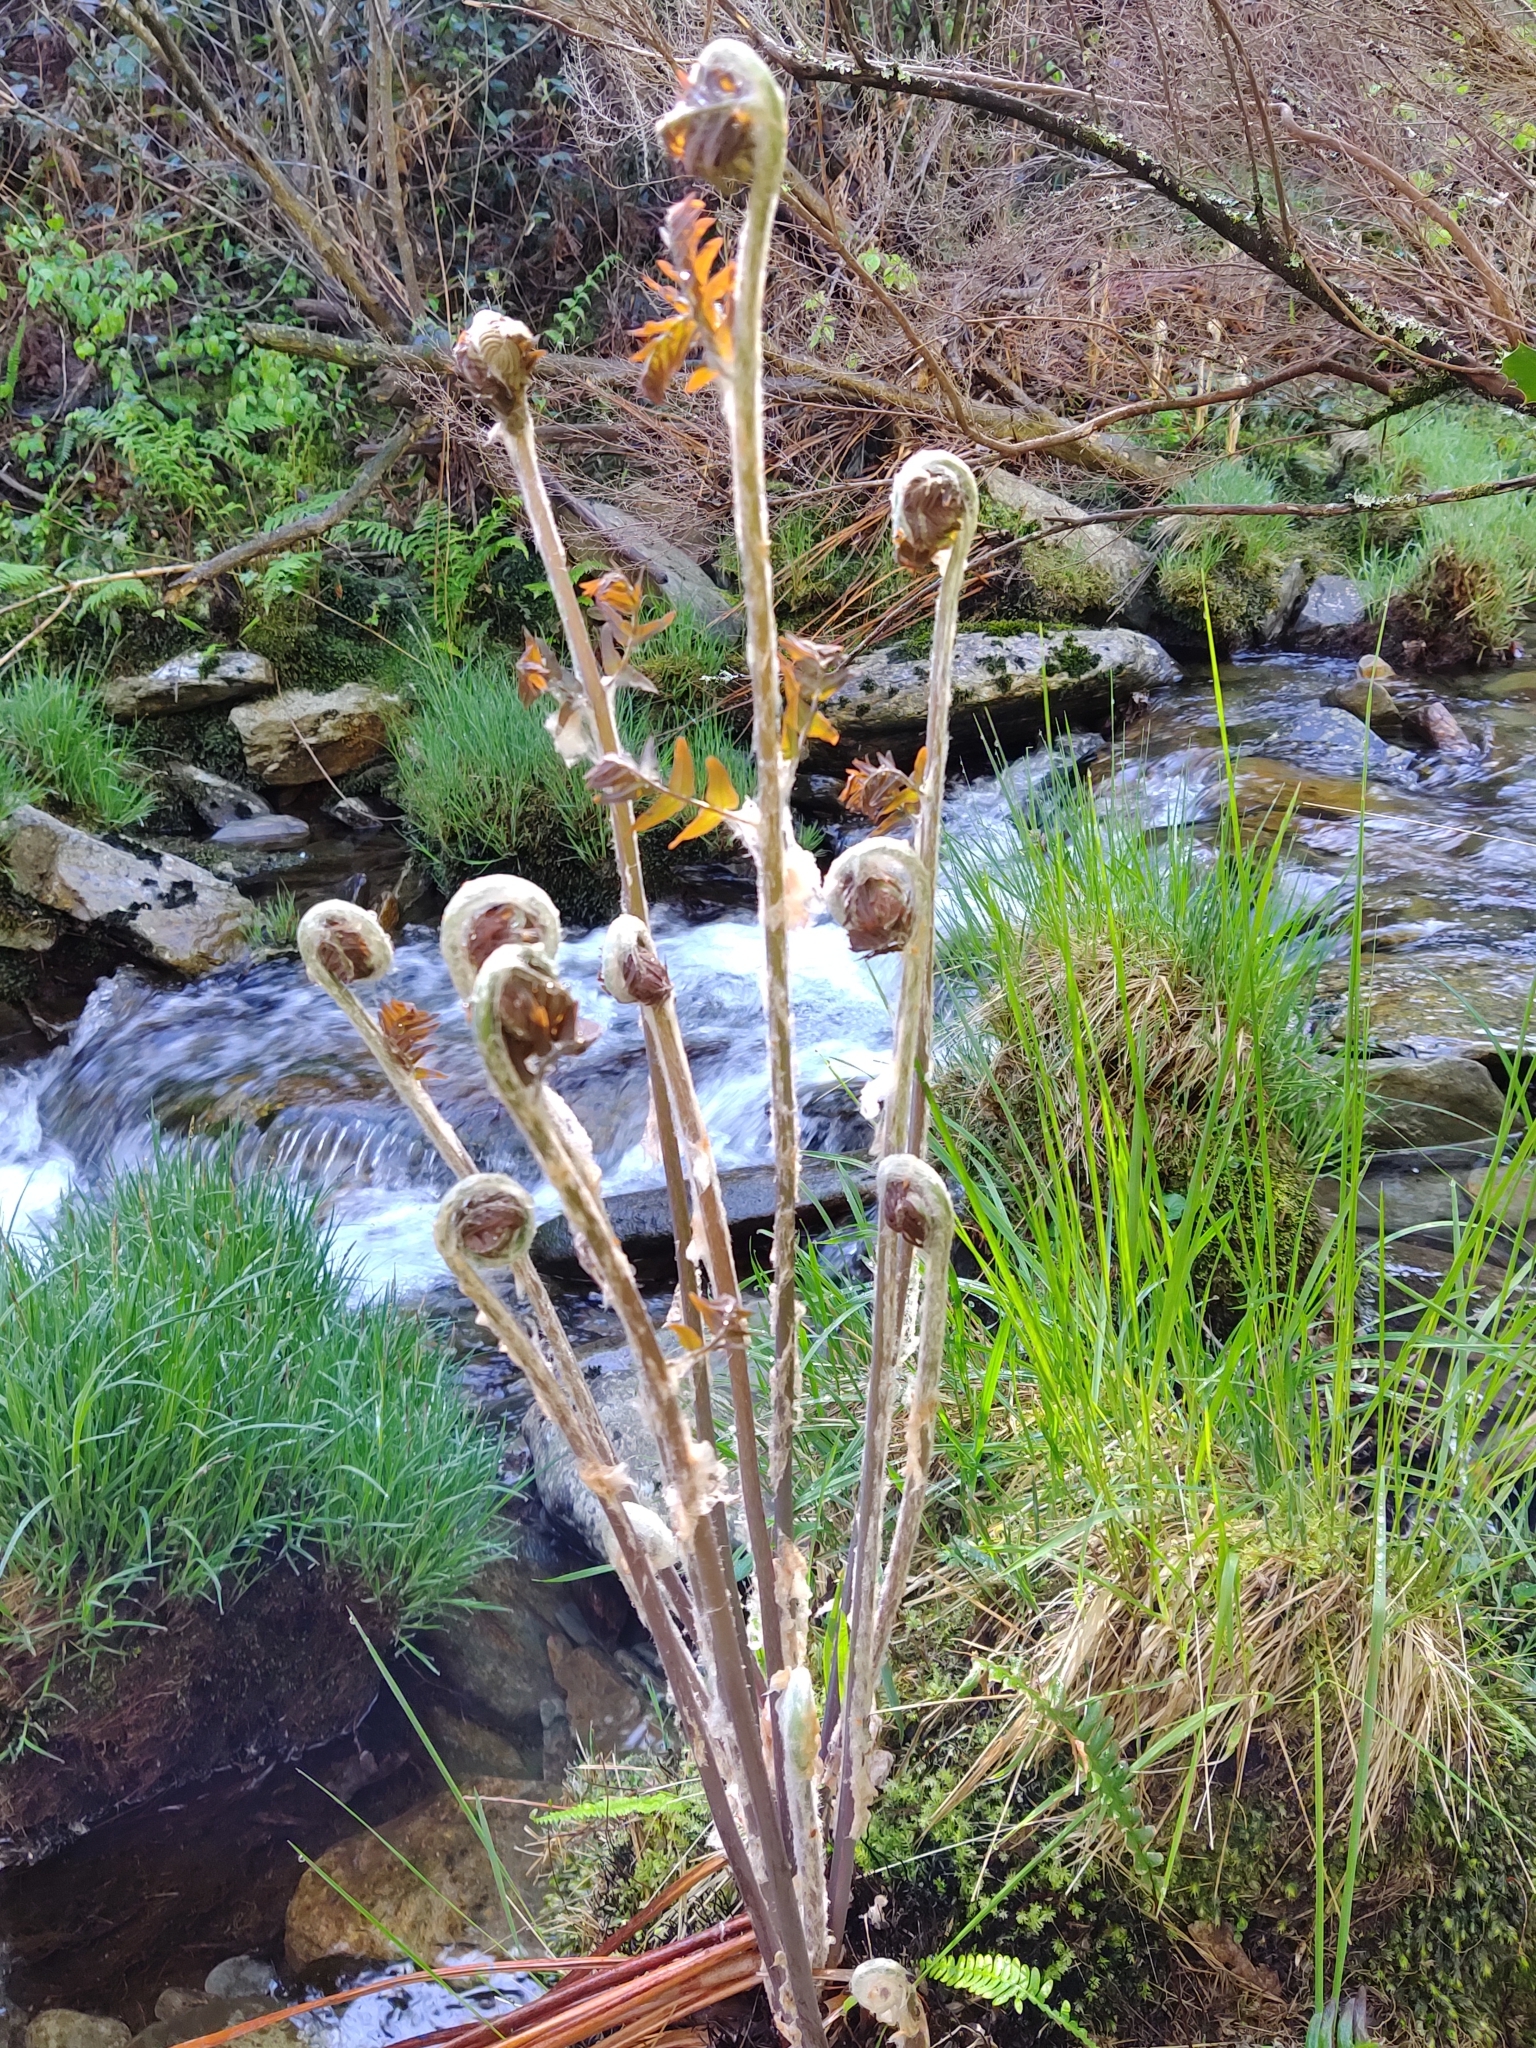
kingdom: Plantae
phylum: Tracheophyta
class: Polypodiopsida
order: Osmundales
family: Osmundaceae
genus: Osmunda
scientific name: Osmunda regalis
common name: Royal fern
